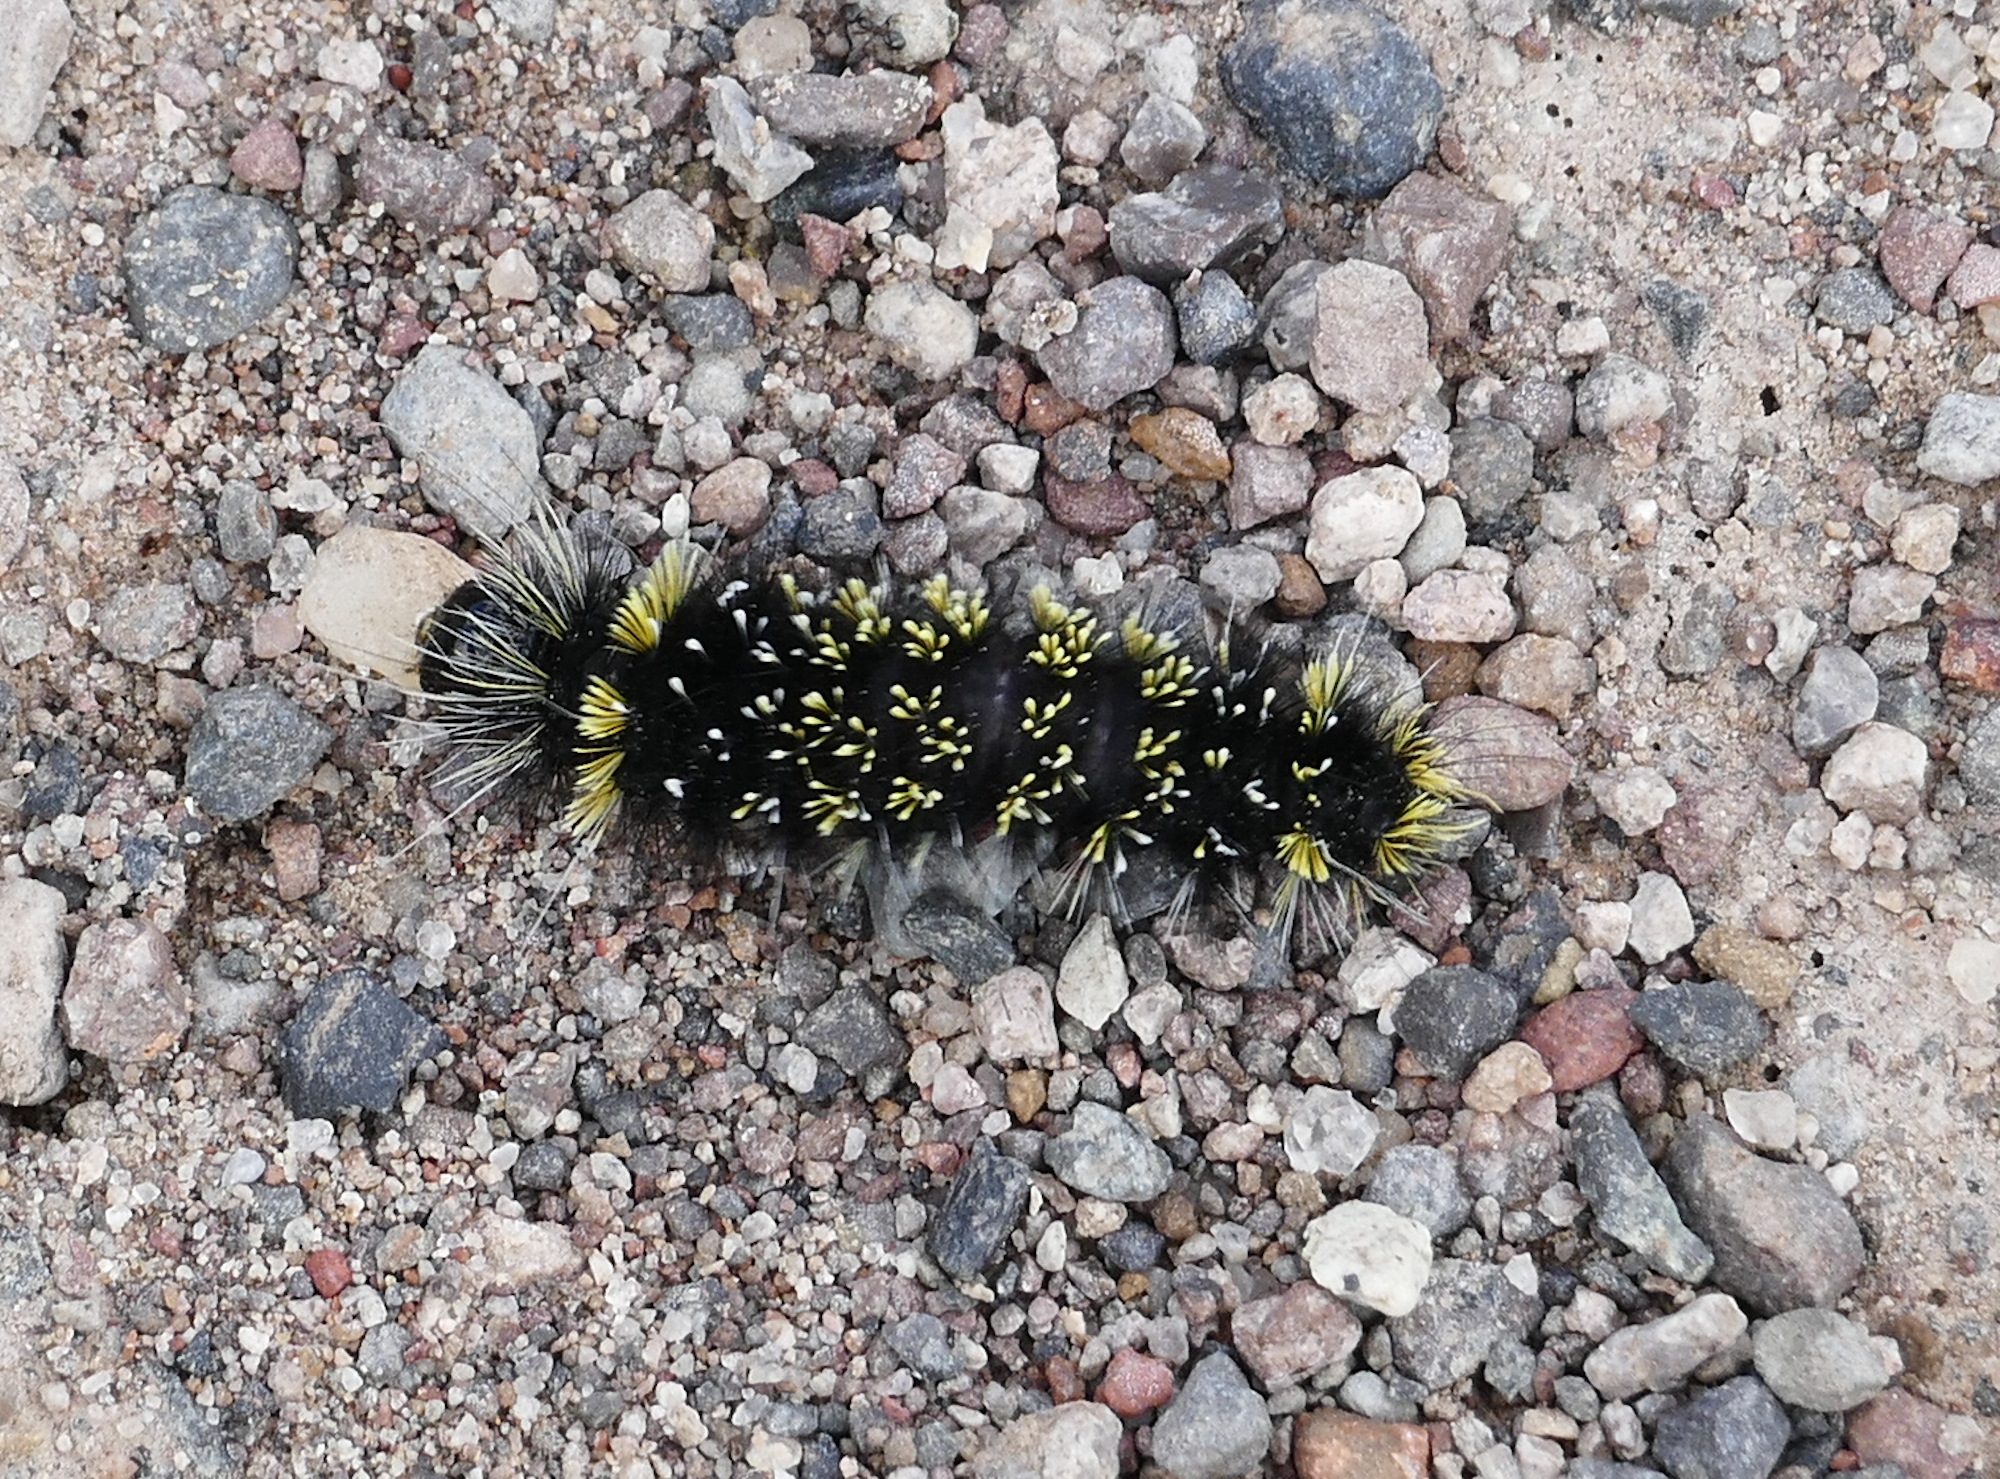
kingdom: Animalia
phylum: Arthropoda
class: Insecta
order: Lepidoptera
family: Erebidae
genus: Hypocrisias
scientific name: Hypocrisias minima
